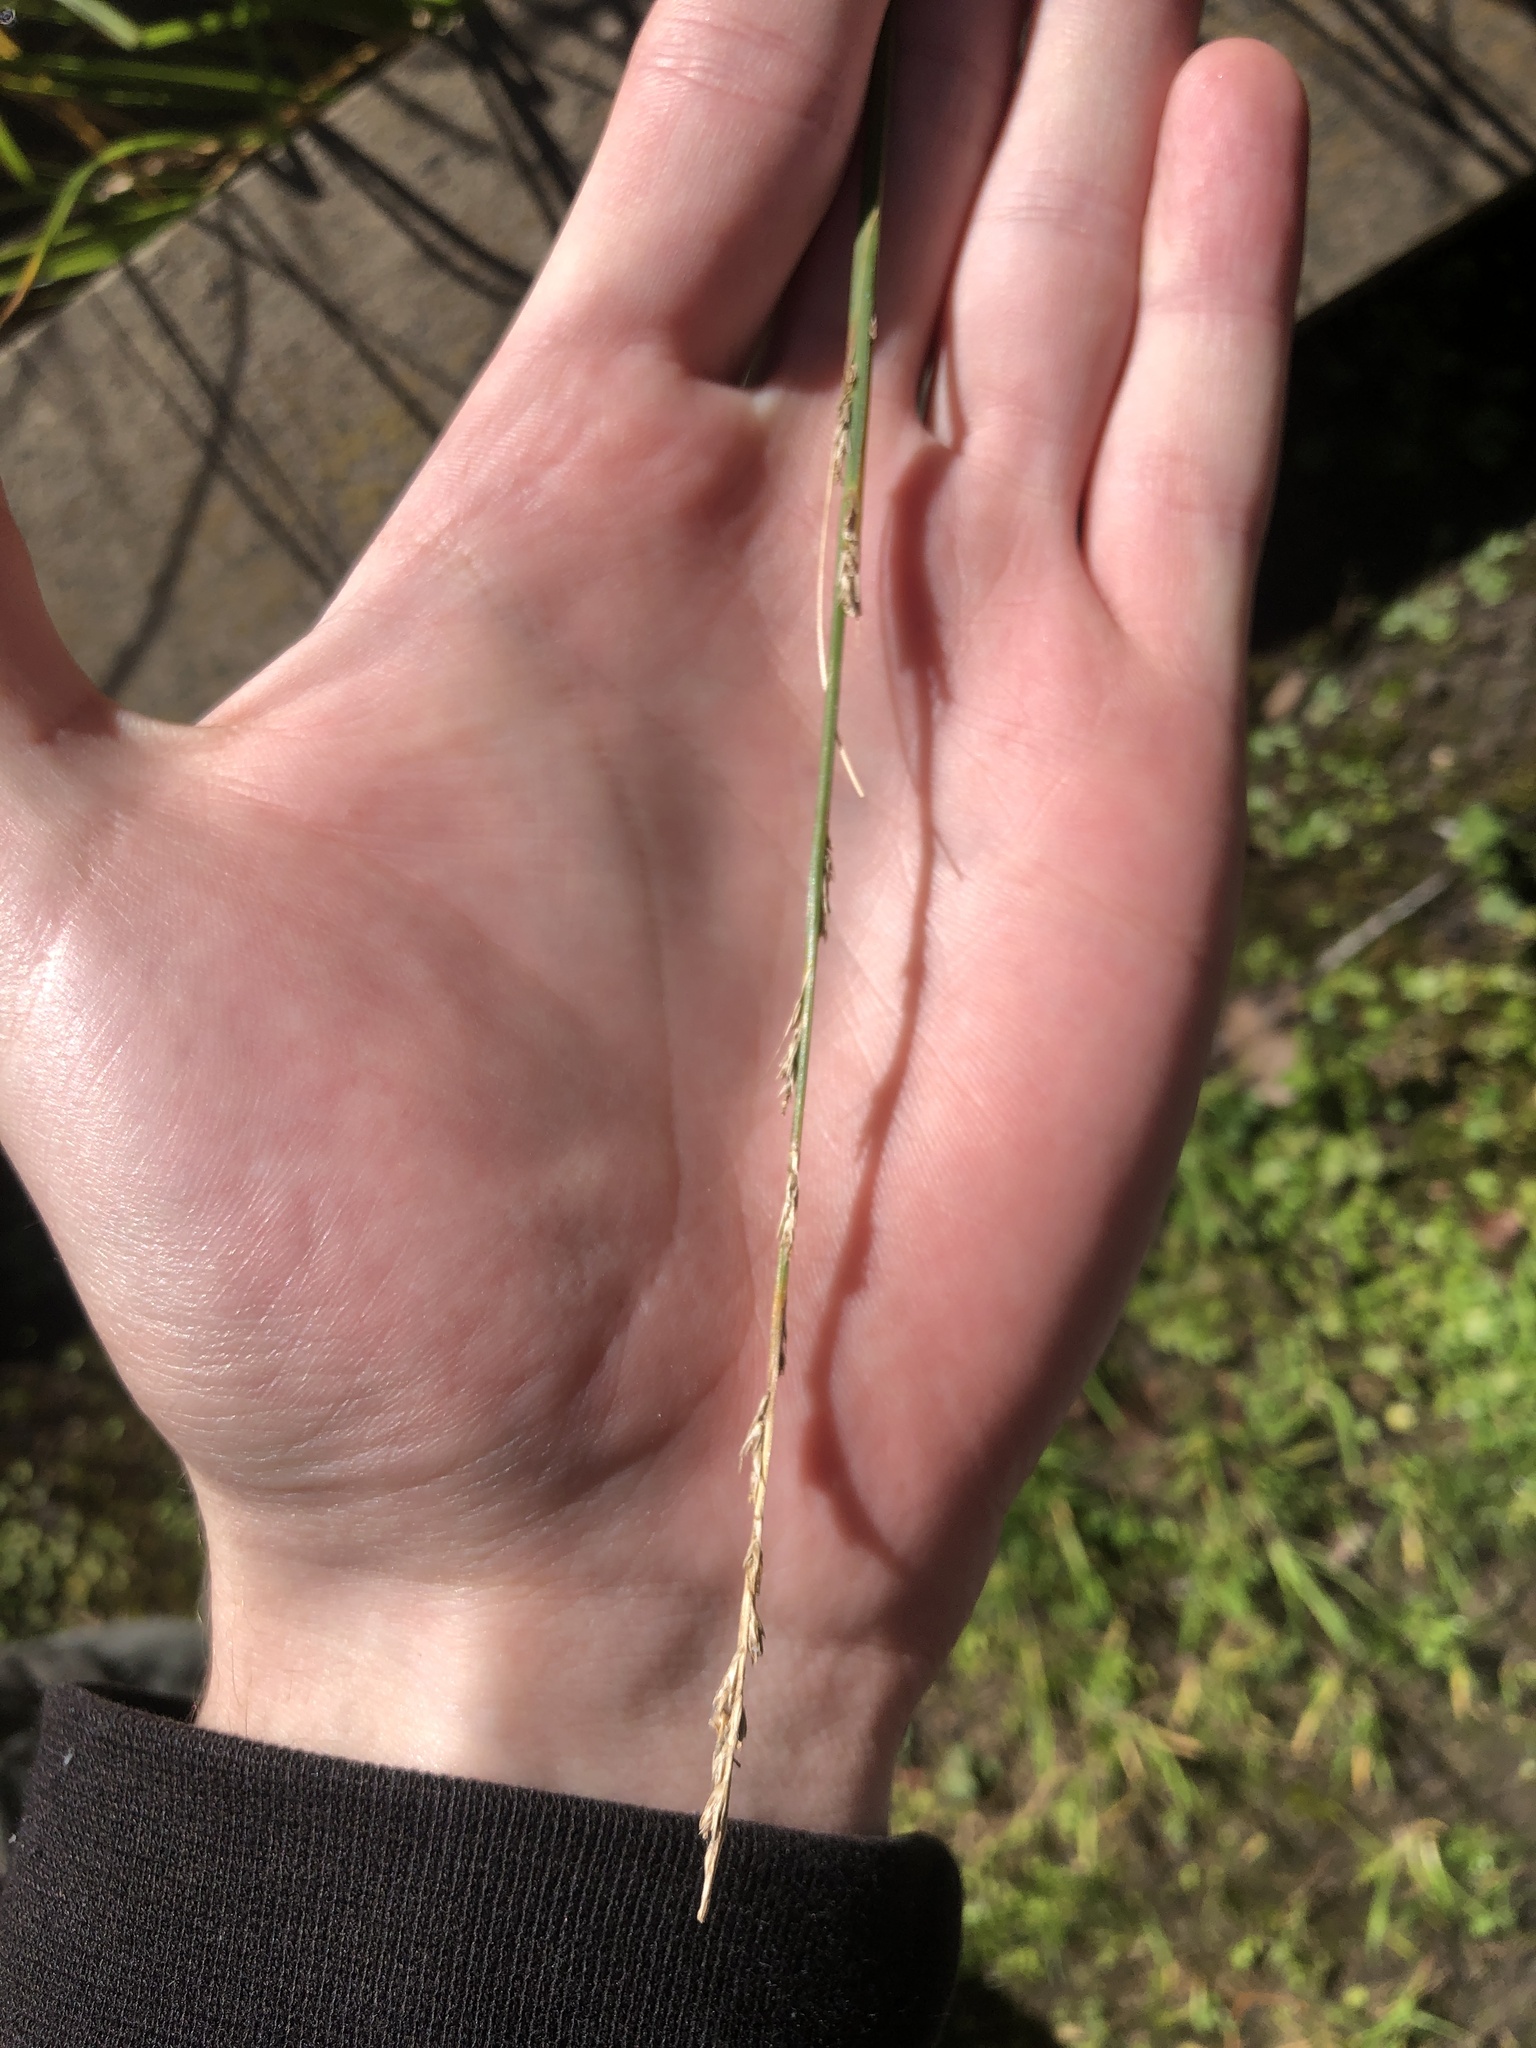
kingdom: Plantae
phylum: Tracheophyta
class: Liliopsida
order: Poales
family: Cyperaceae
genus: Carex
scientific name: Carex secta
